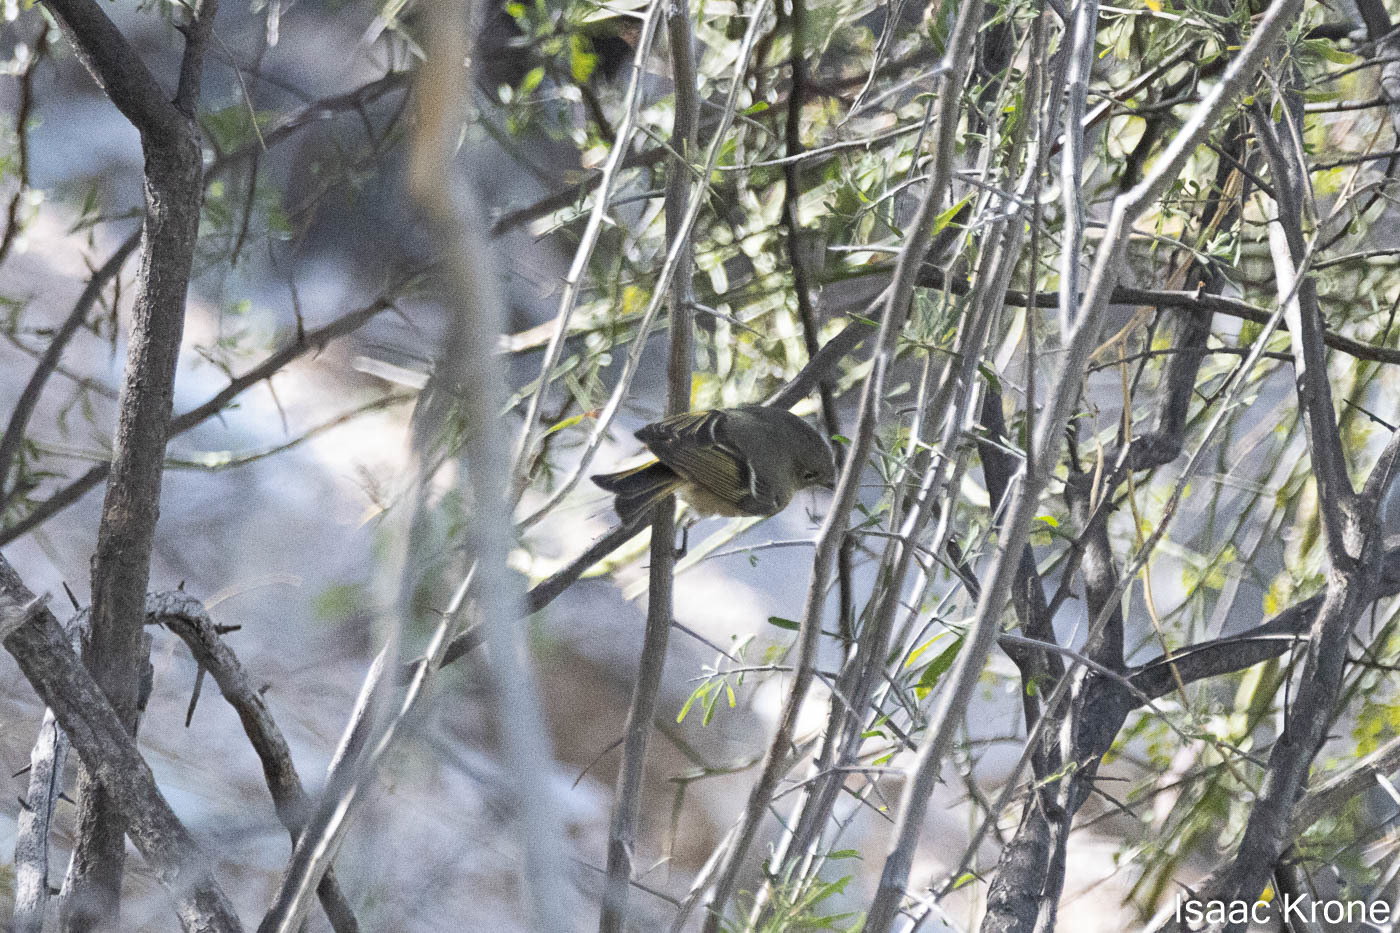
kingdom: Animalia
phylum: Chordata
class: Aves
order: Passeriformes
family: Regulidae
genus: Regulus
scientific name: Regulus calendula
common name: Ruby-crowned kinglet
